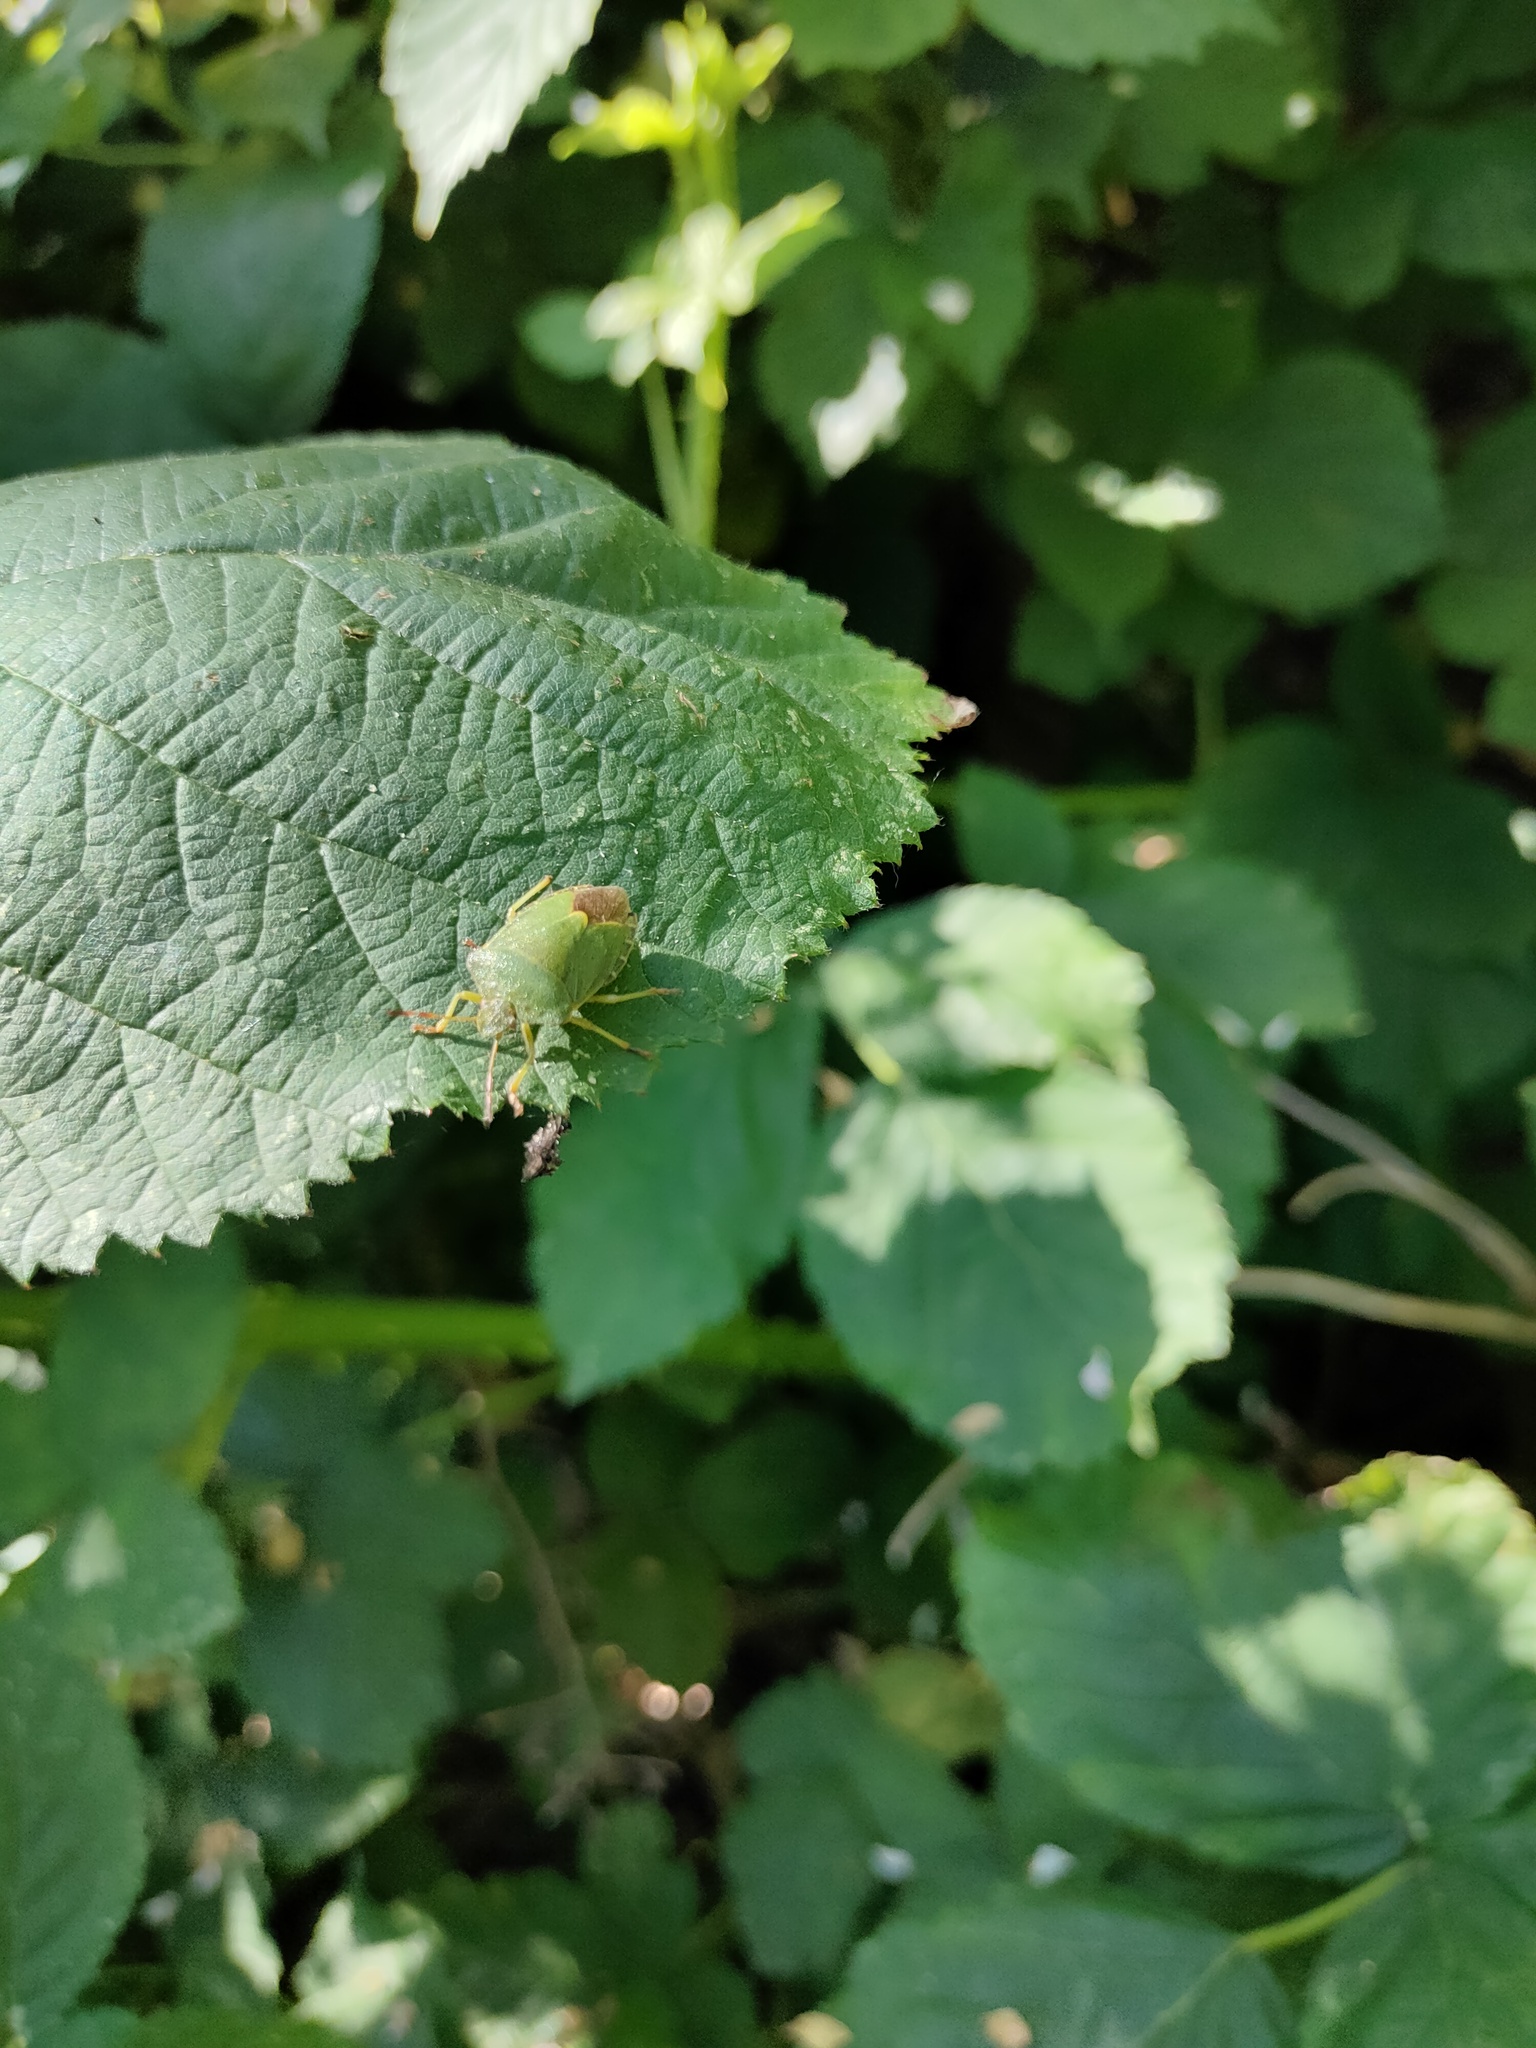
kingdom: Animalia
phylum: Arthropoda
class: Insecta
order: Hemiptera
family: Pentatomidae
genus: Palomena
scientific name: Palomena prasina
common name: Green shieldbug
